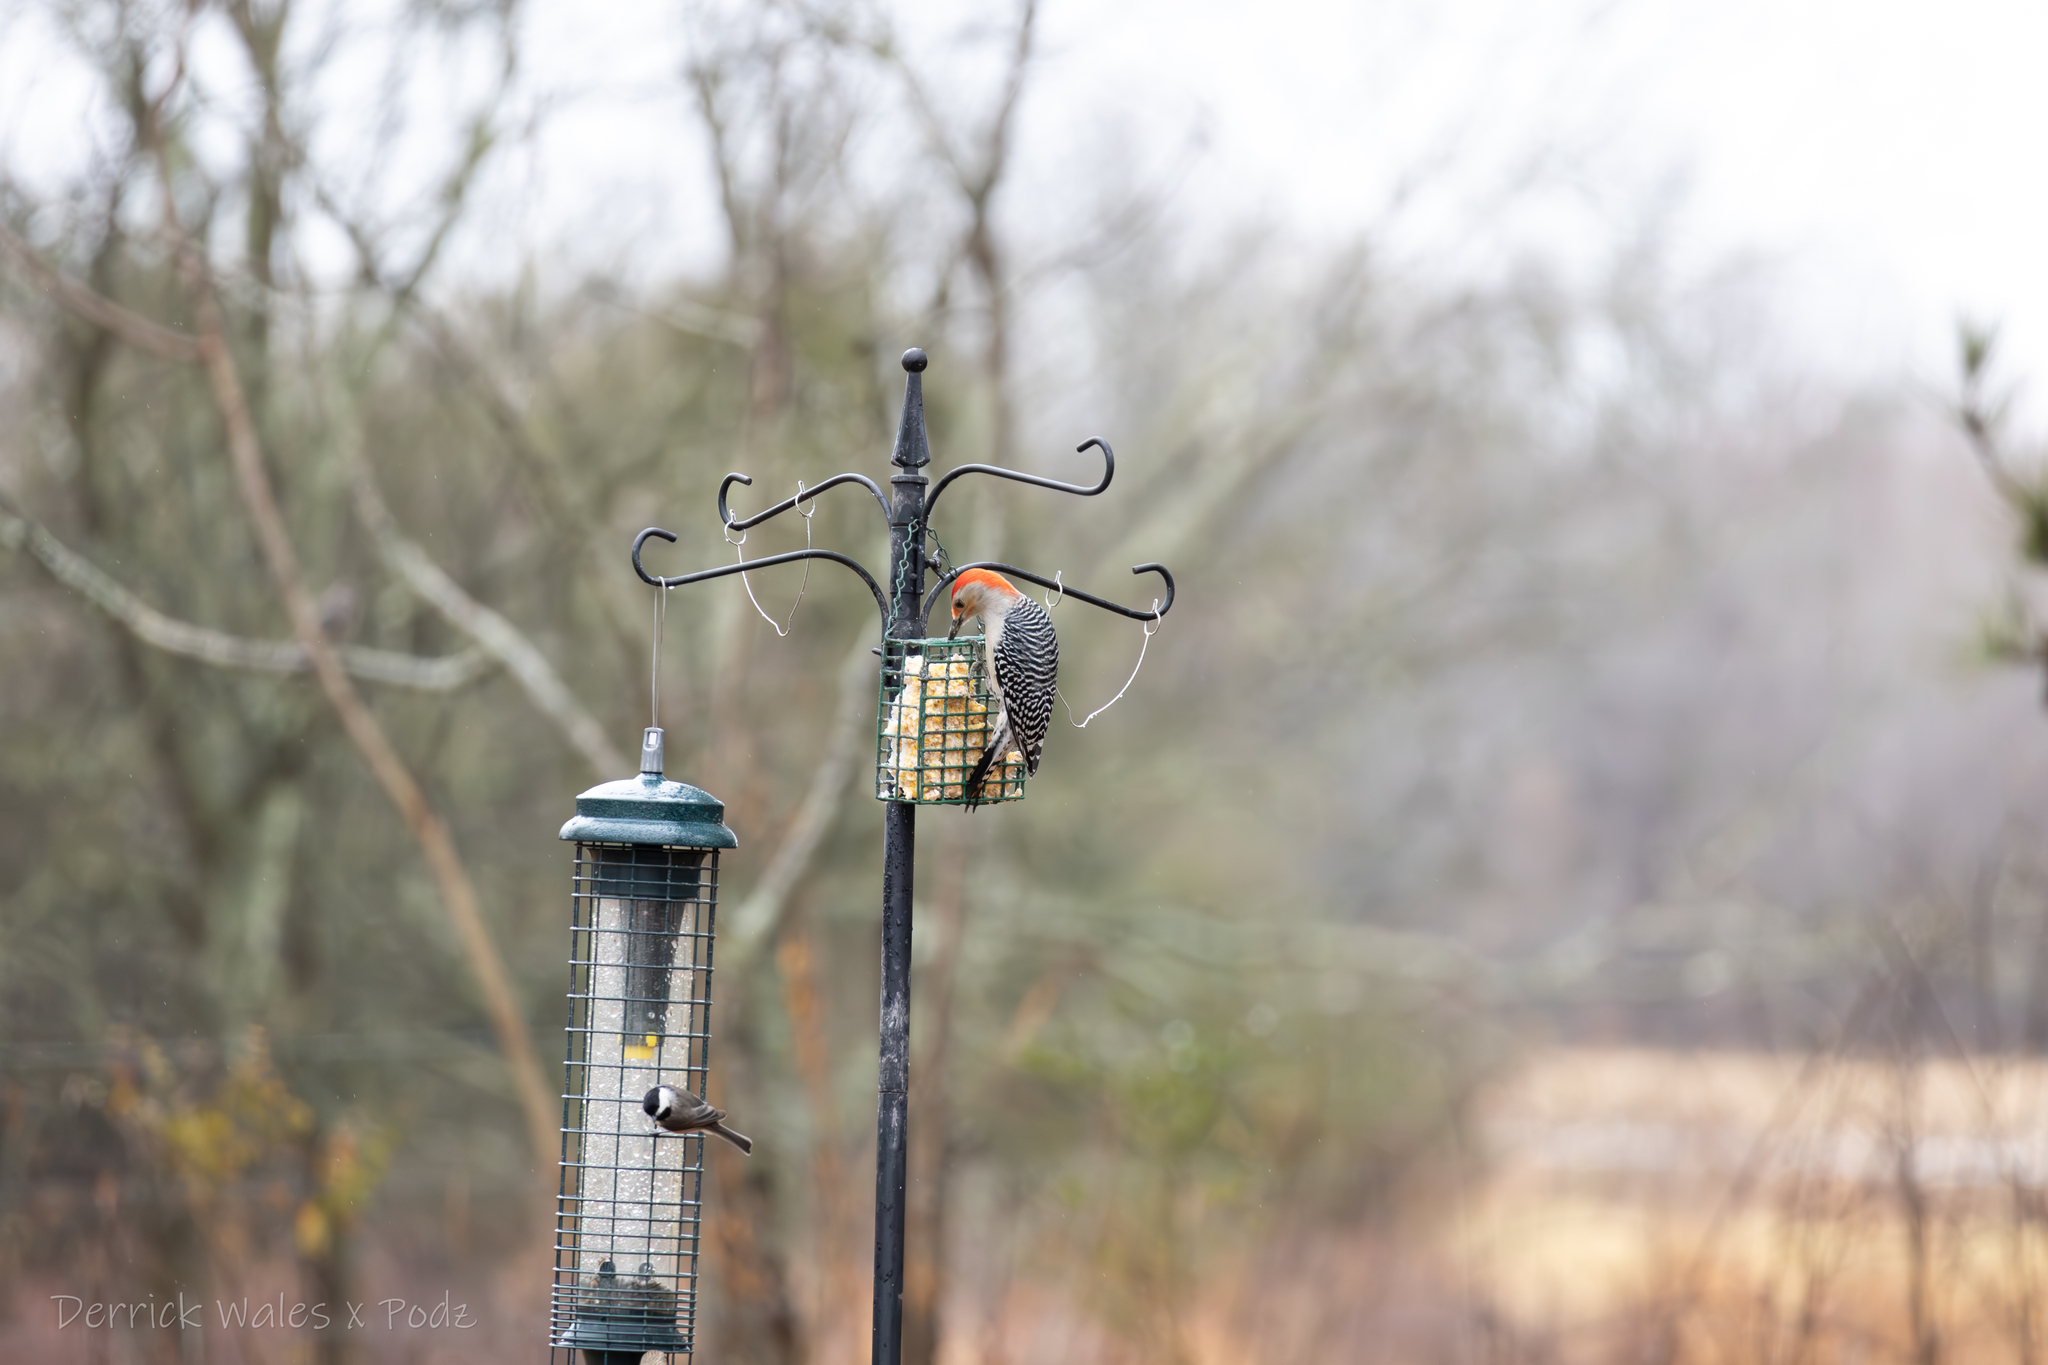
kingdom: Animalia
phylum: Chordata
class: Aves
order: Piciformes
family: Picidae
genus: Melanerpes
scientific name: Melanerpes carolinus
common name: Red-bellied woodpecker
